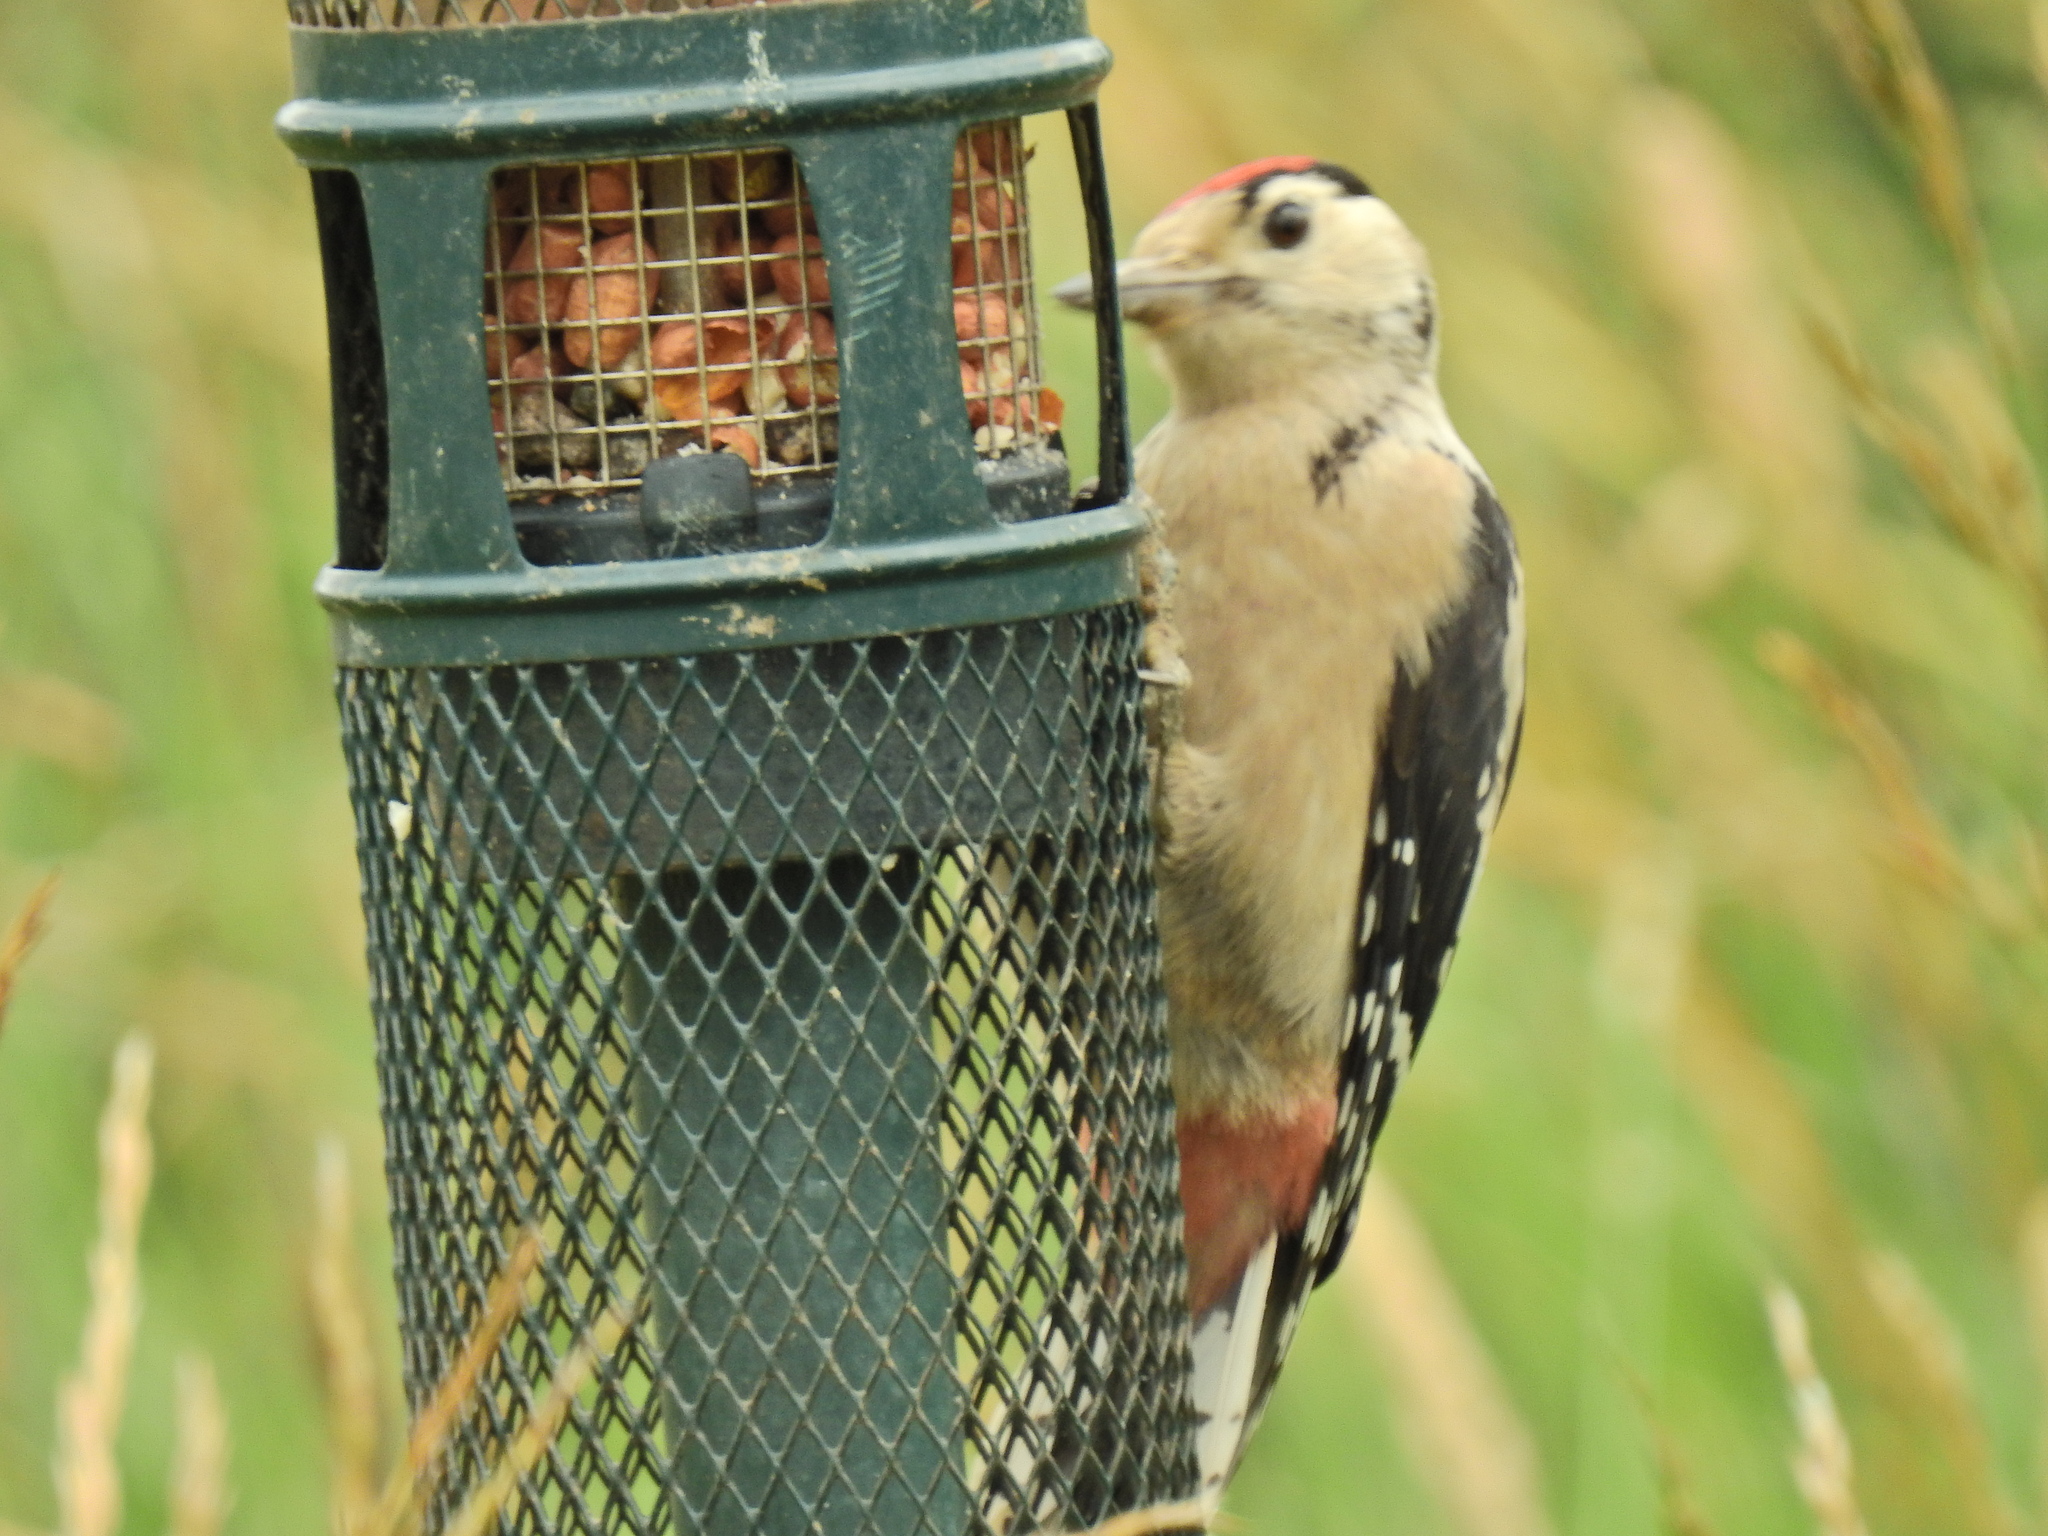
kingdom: Animalia
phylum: Chordata
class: Aves
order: Piciformes
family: Picidae
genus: Dendrocopos
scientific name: Dendrocopos major
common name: Great spotted woodpecker
